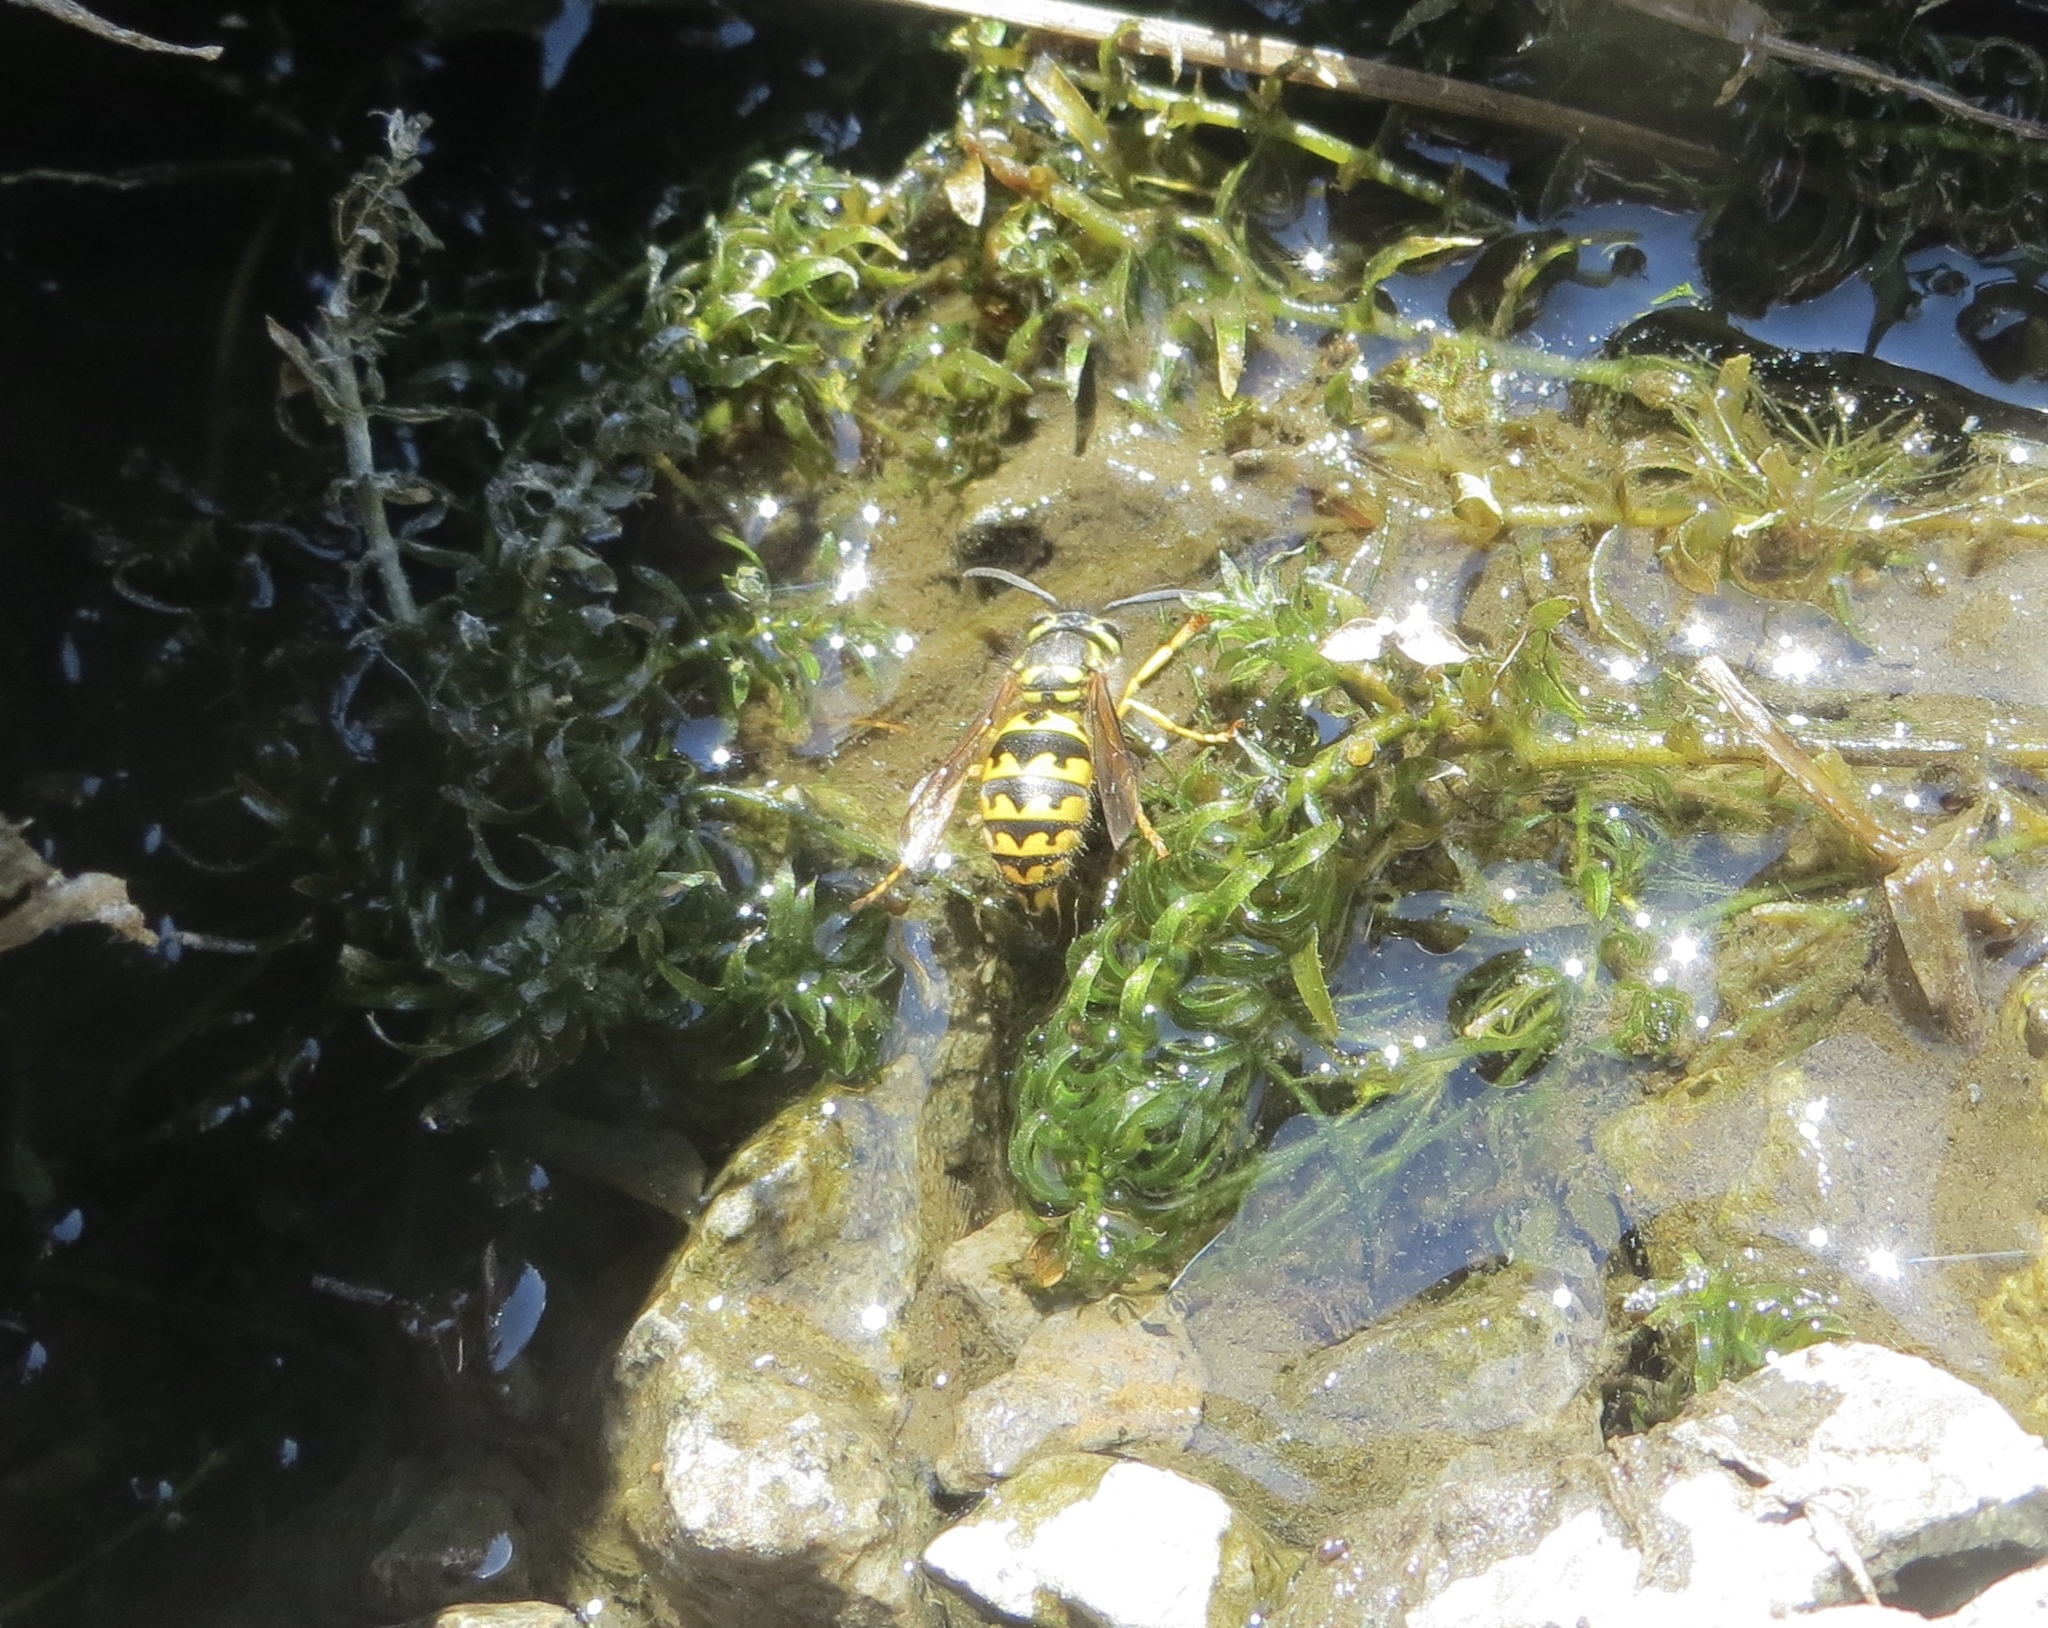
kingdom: Animalia
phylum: Arthropoda
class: Insecta
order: Hymenoptera
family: Vespidae
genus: Vespula
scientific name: Vespula pensylvanica
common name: Western yellowjacket
